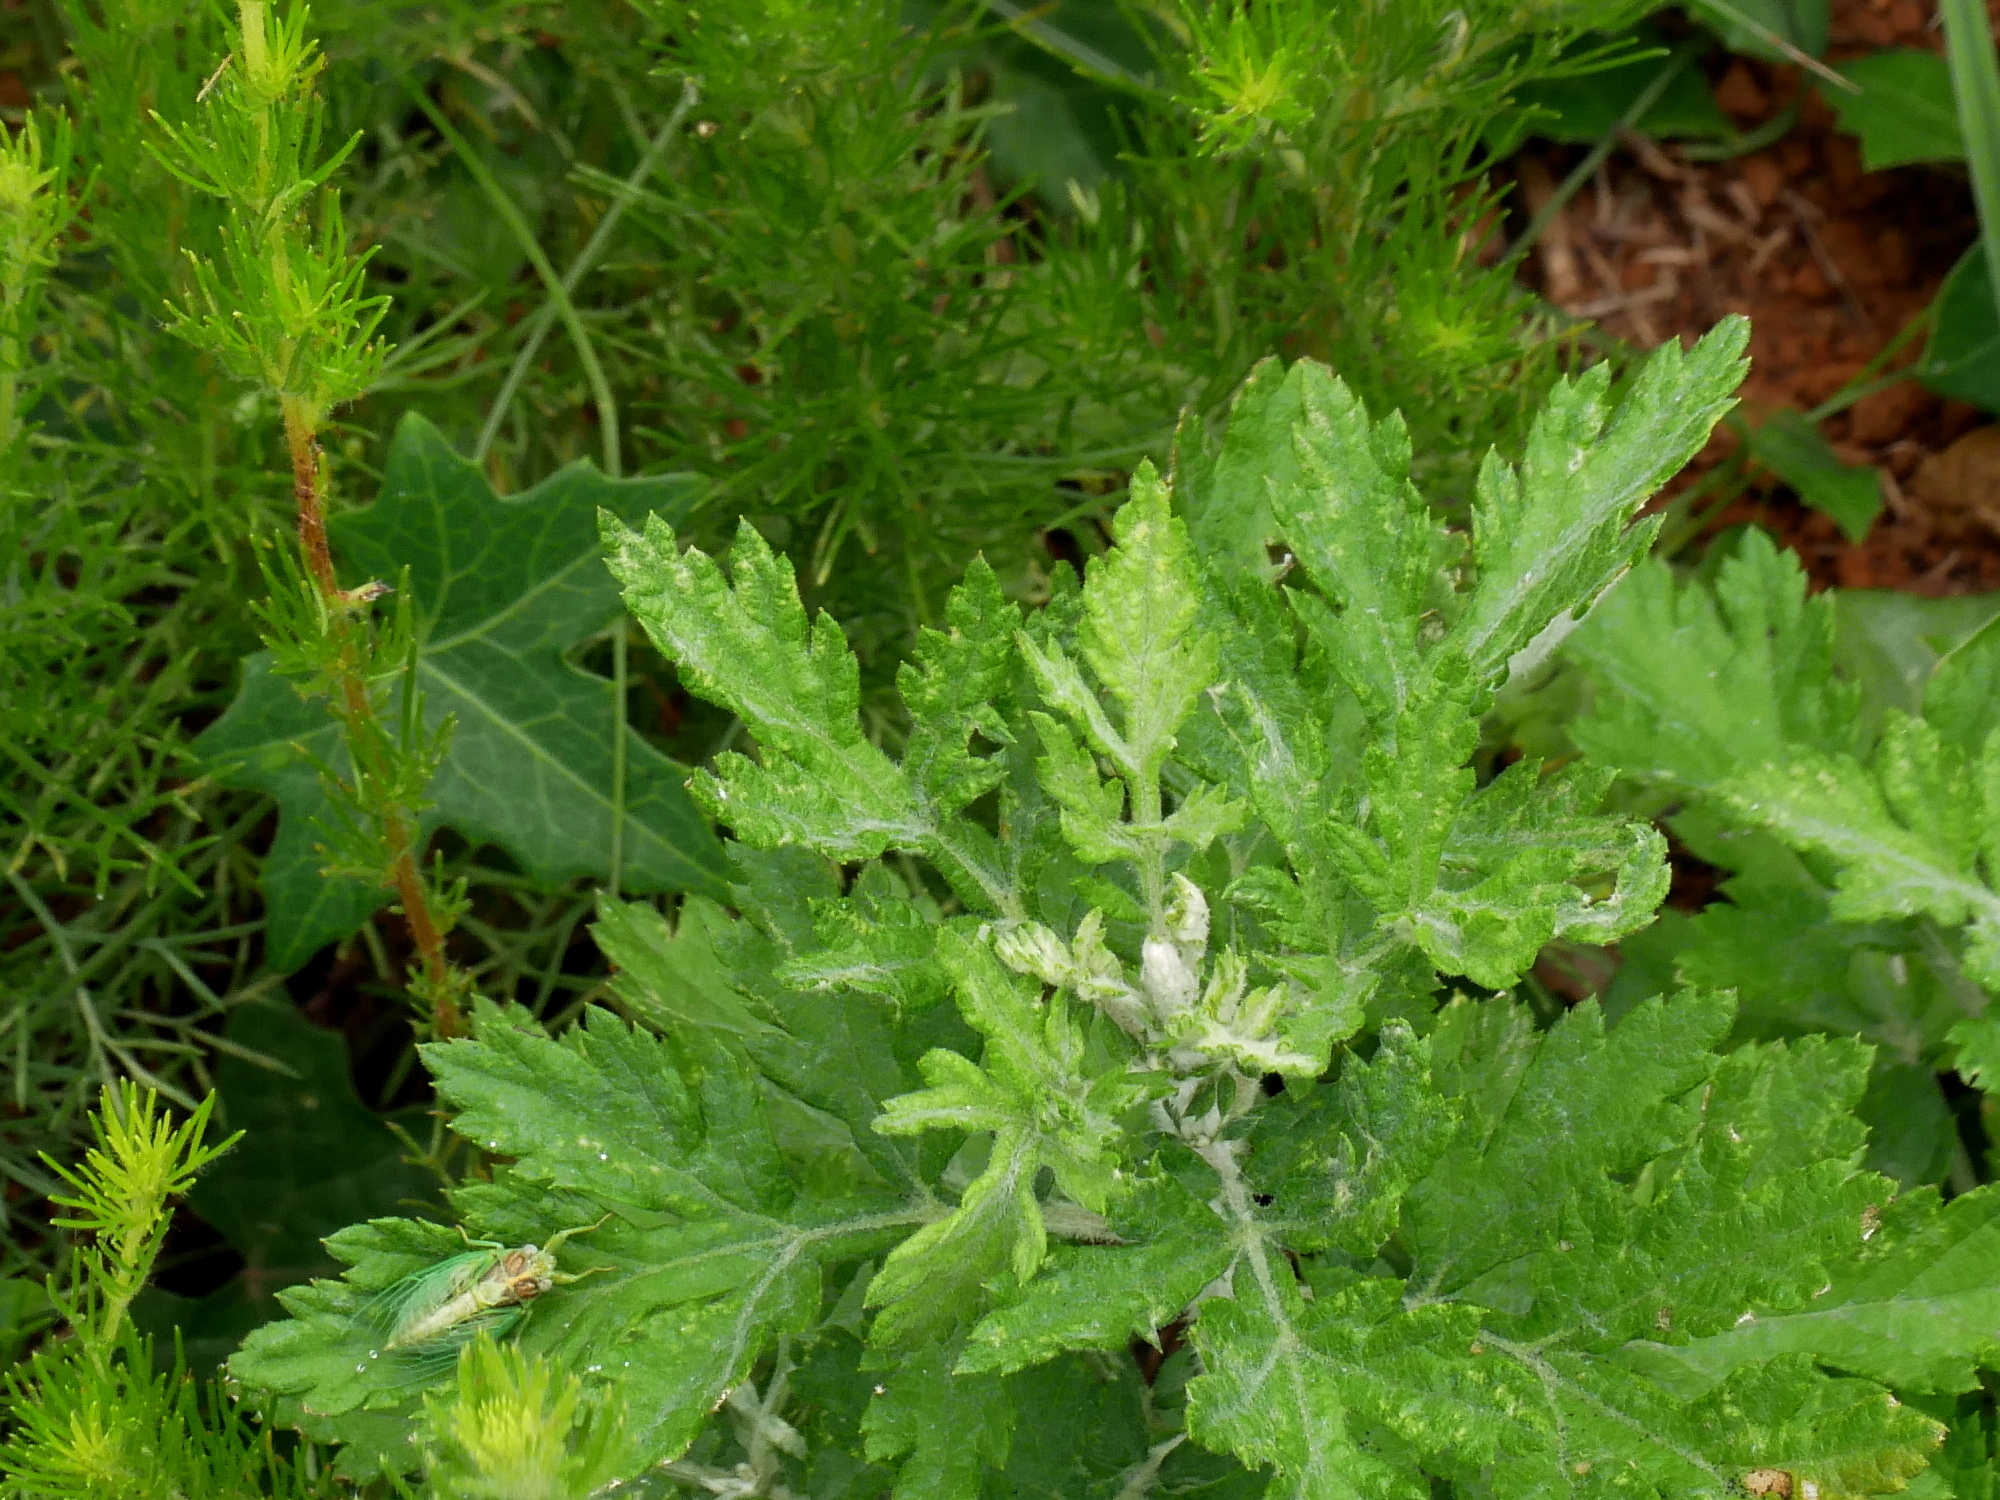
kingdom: Plantae
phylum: Tracheophyta
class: Magnoliopsida
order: Asterales
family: Asteraceae
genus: Chrysanthemum
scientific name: Chrysanthemum lavandulifolium
